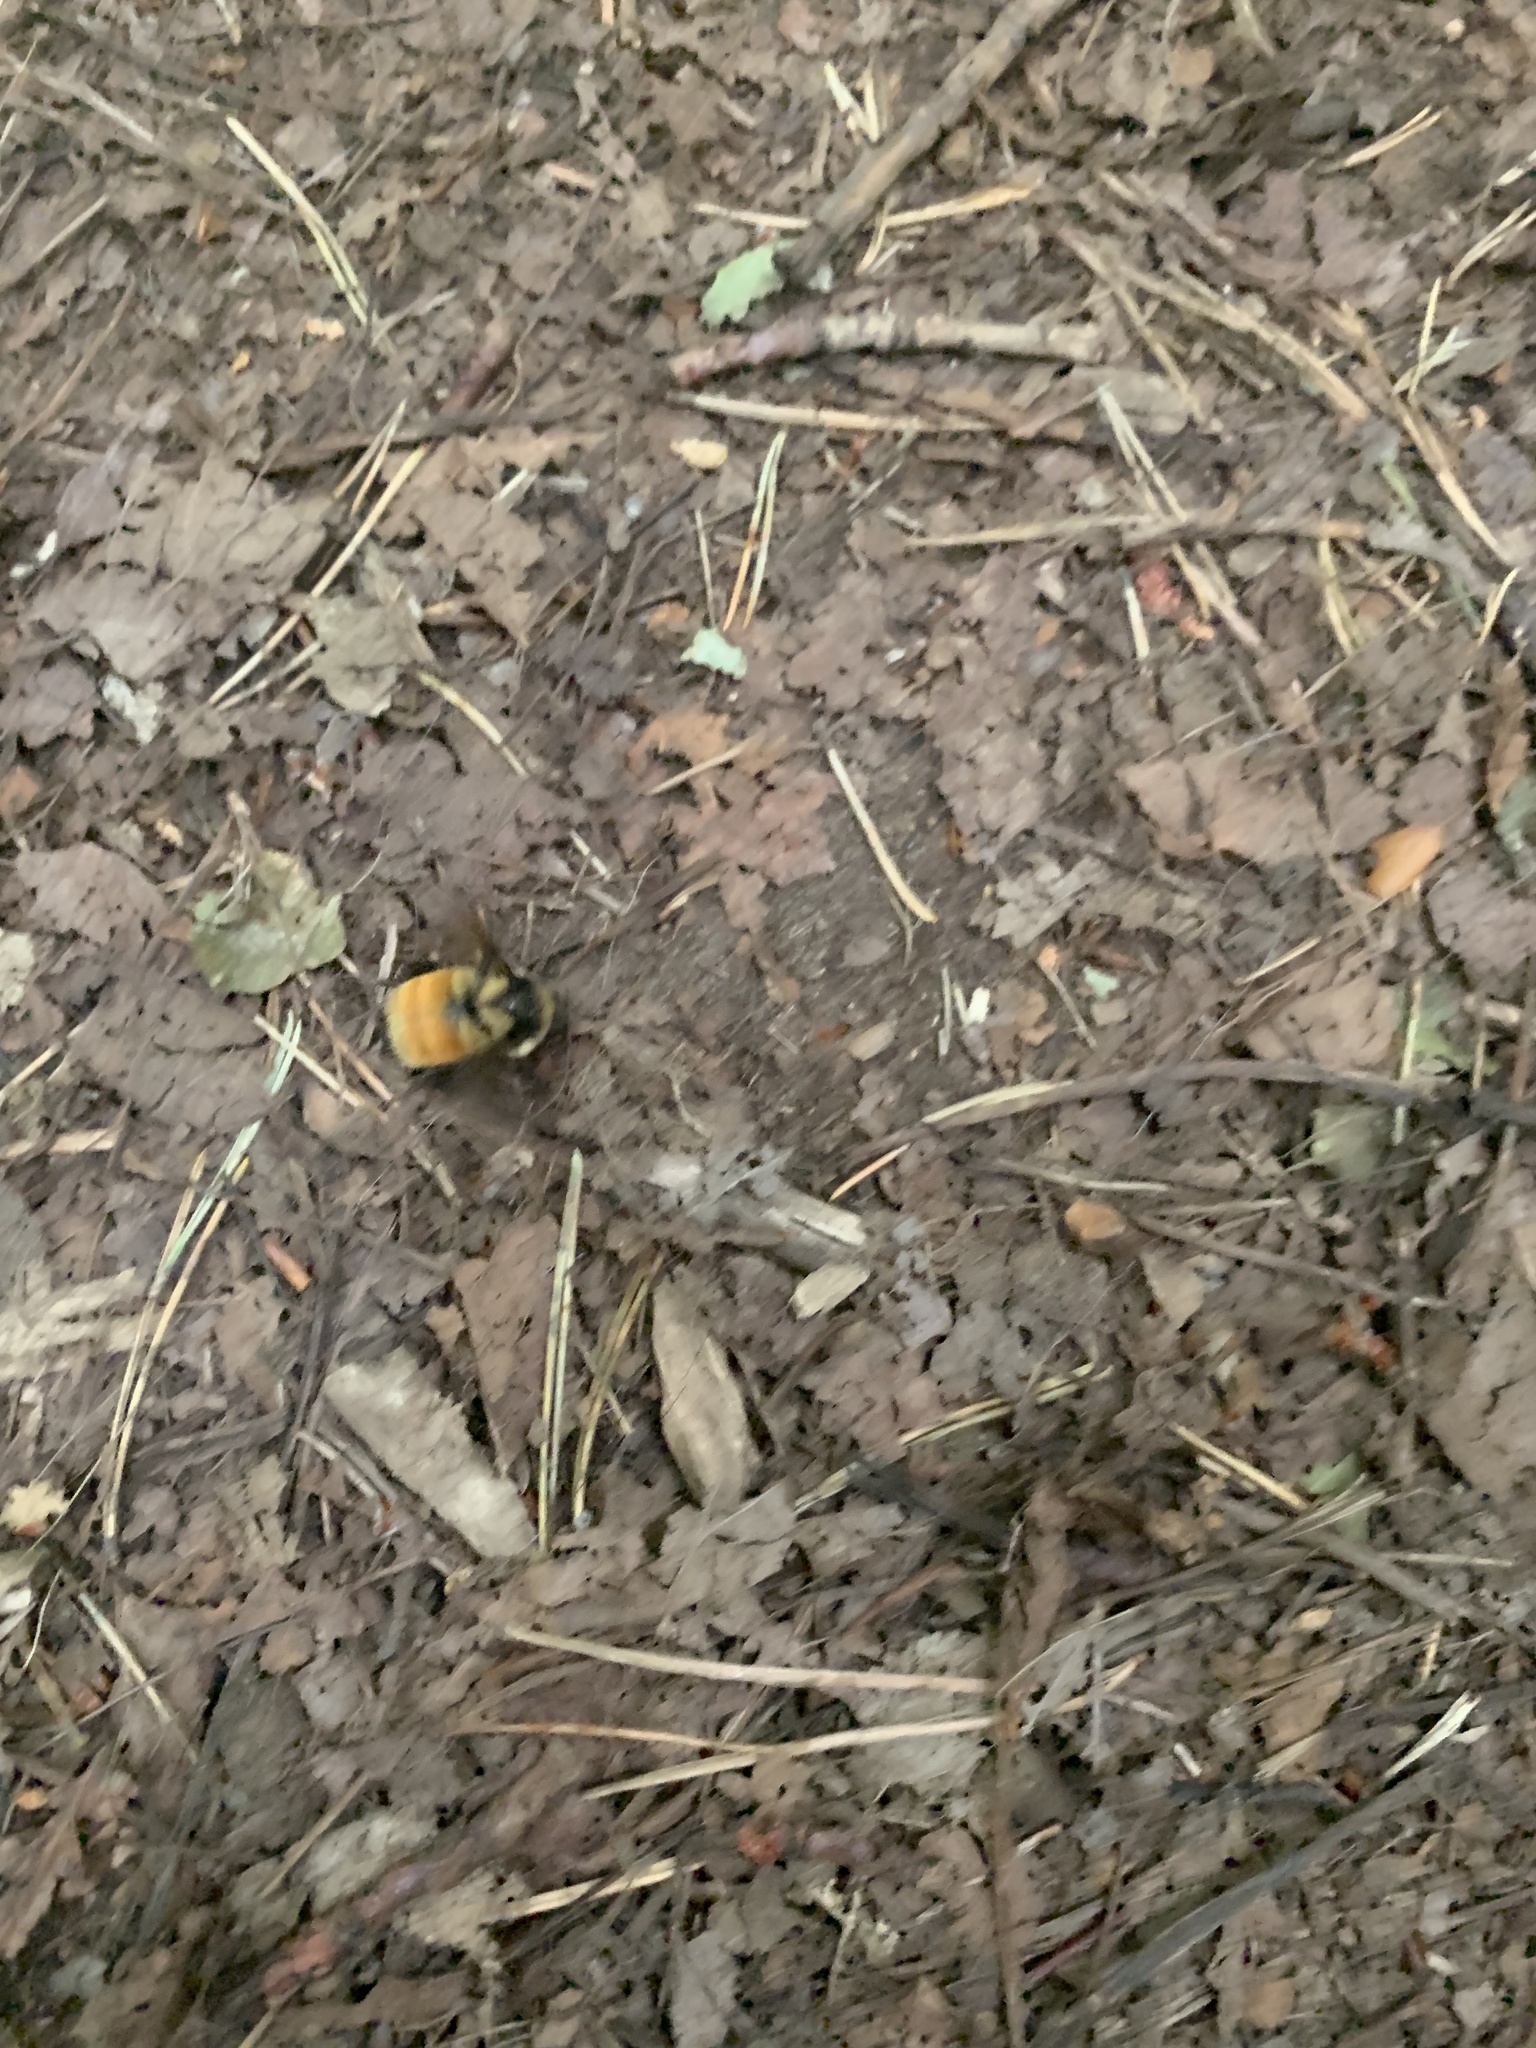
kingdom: Animalia
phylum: Arthropoda
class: Insecta
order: Hymenoptera
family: Apidae
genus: Bombus
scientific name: Bombus ternarius
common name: Tri-colored bumble bee
